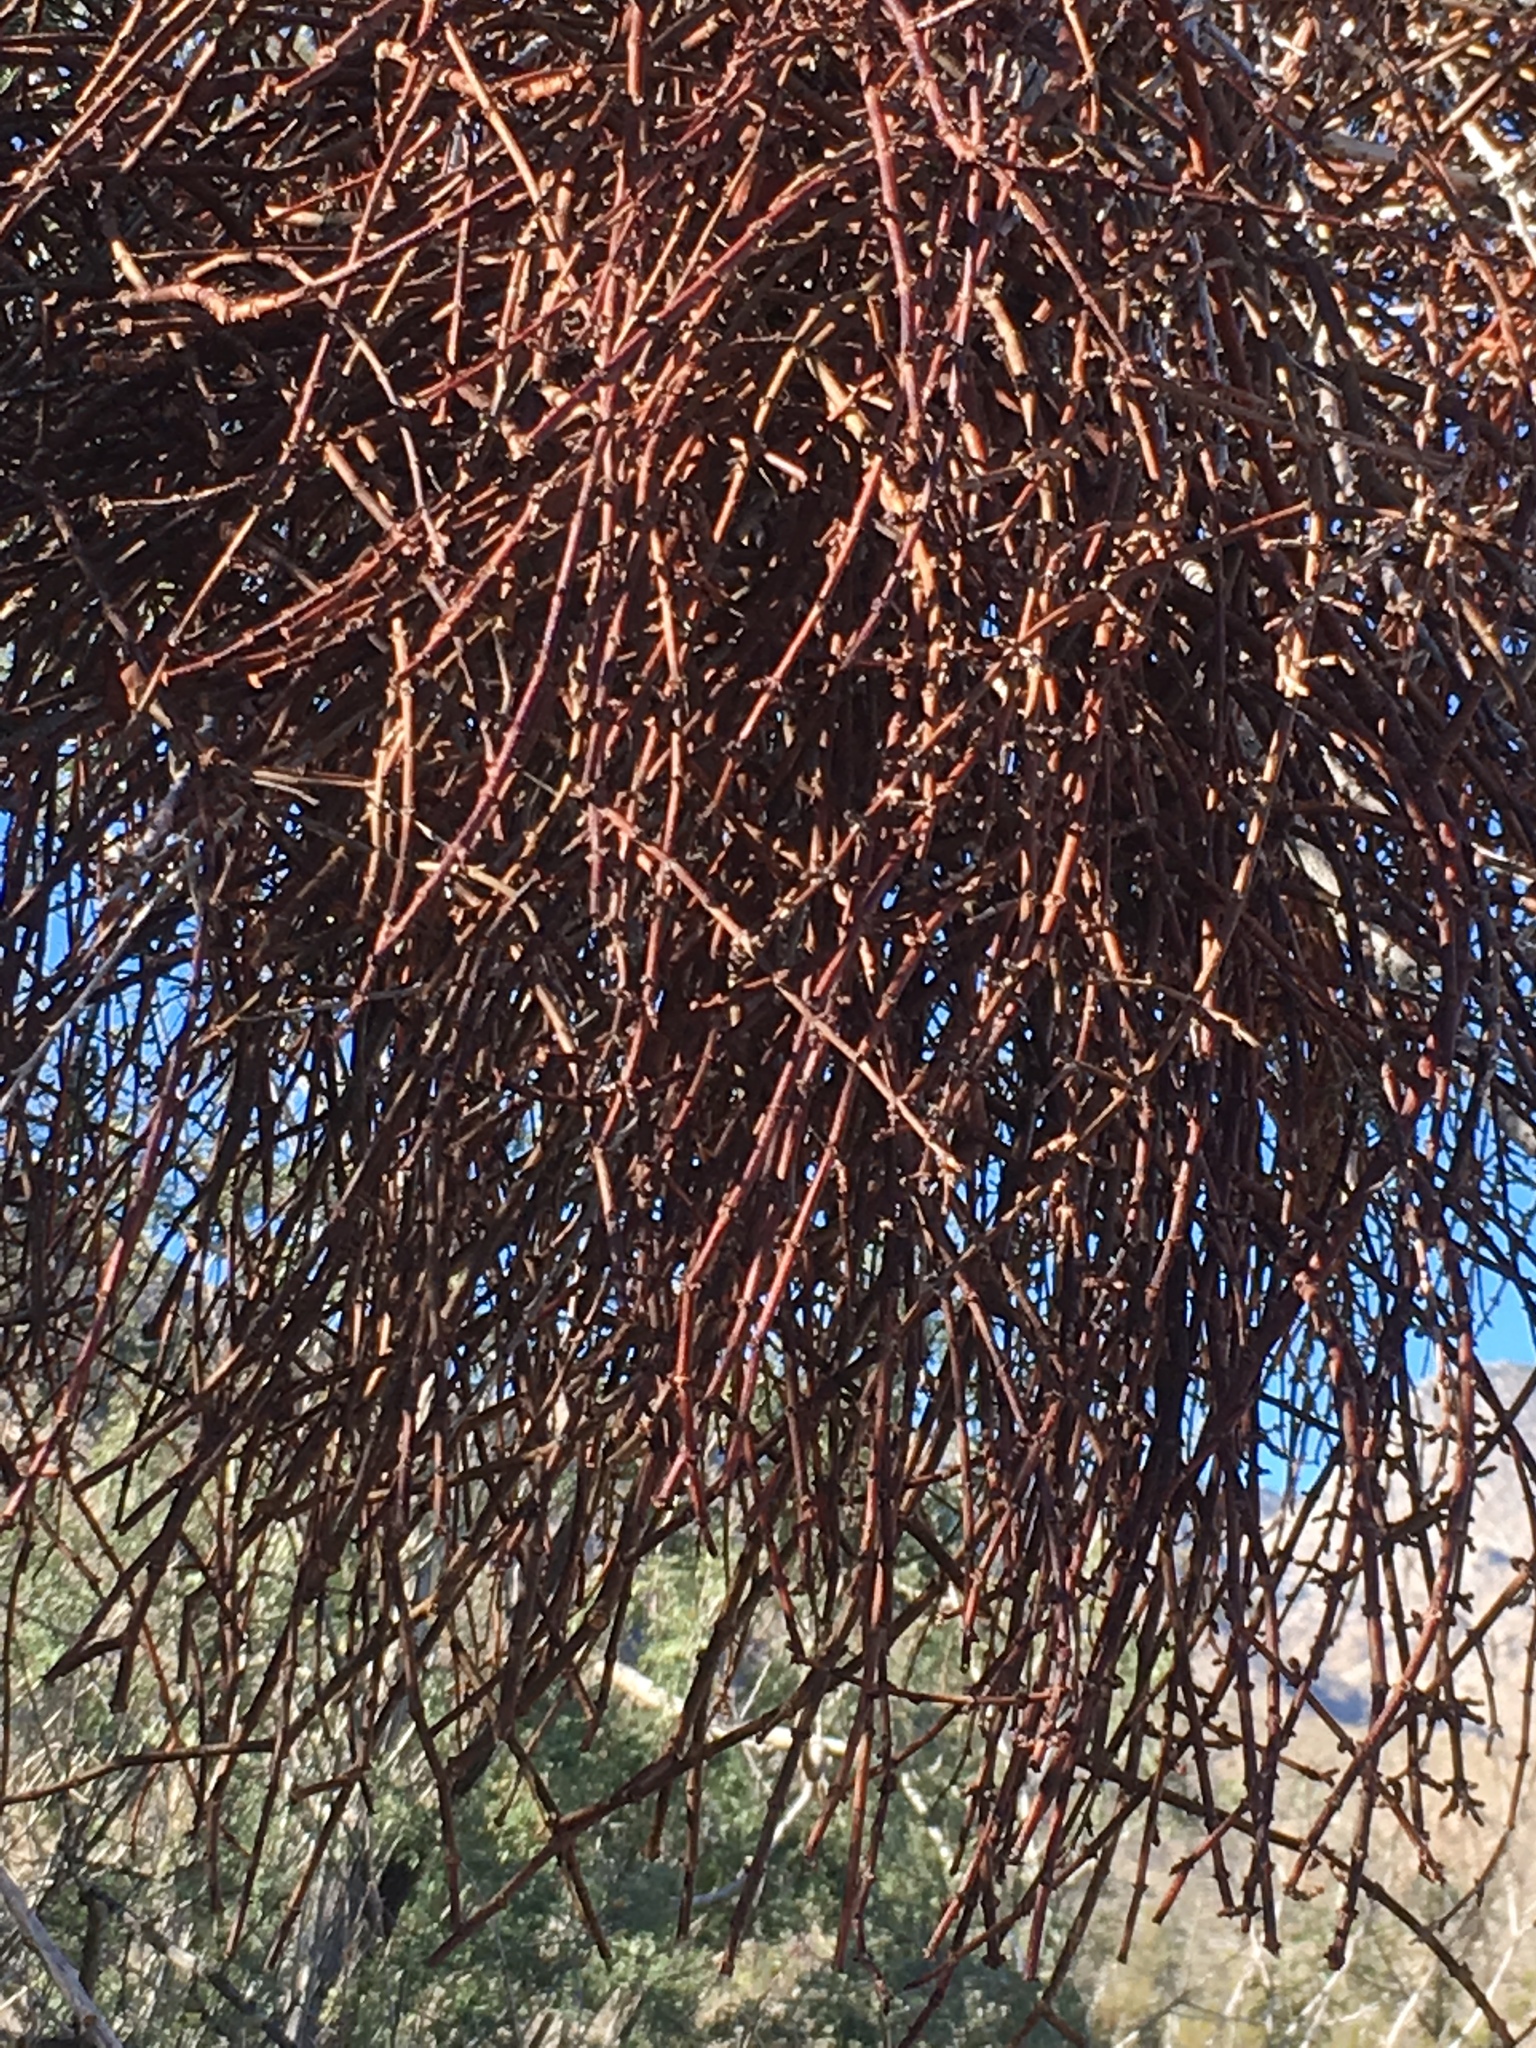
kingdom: Plantae
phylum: Tracheophyta
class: Magnoliopsida
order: Santalales
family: Viscaceae
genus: Phoradendron
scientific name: Phoradendron californicum
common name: Acacia mistletoe
